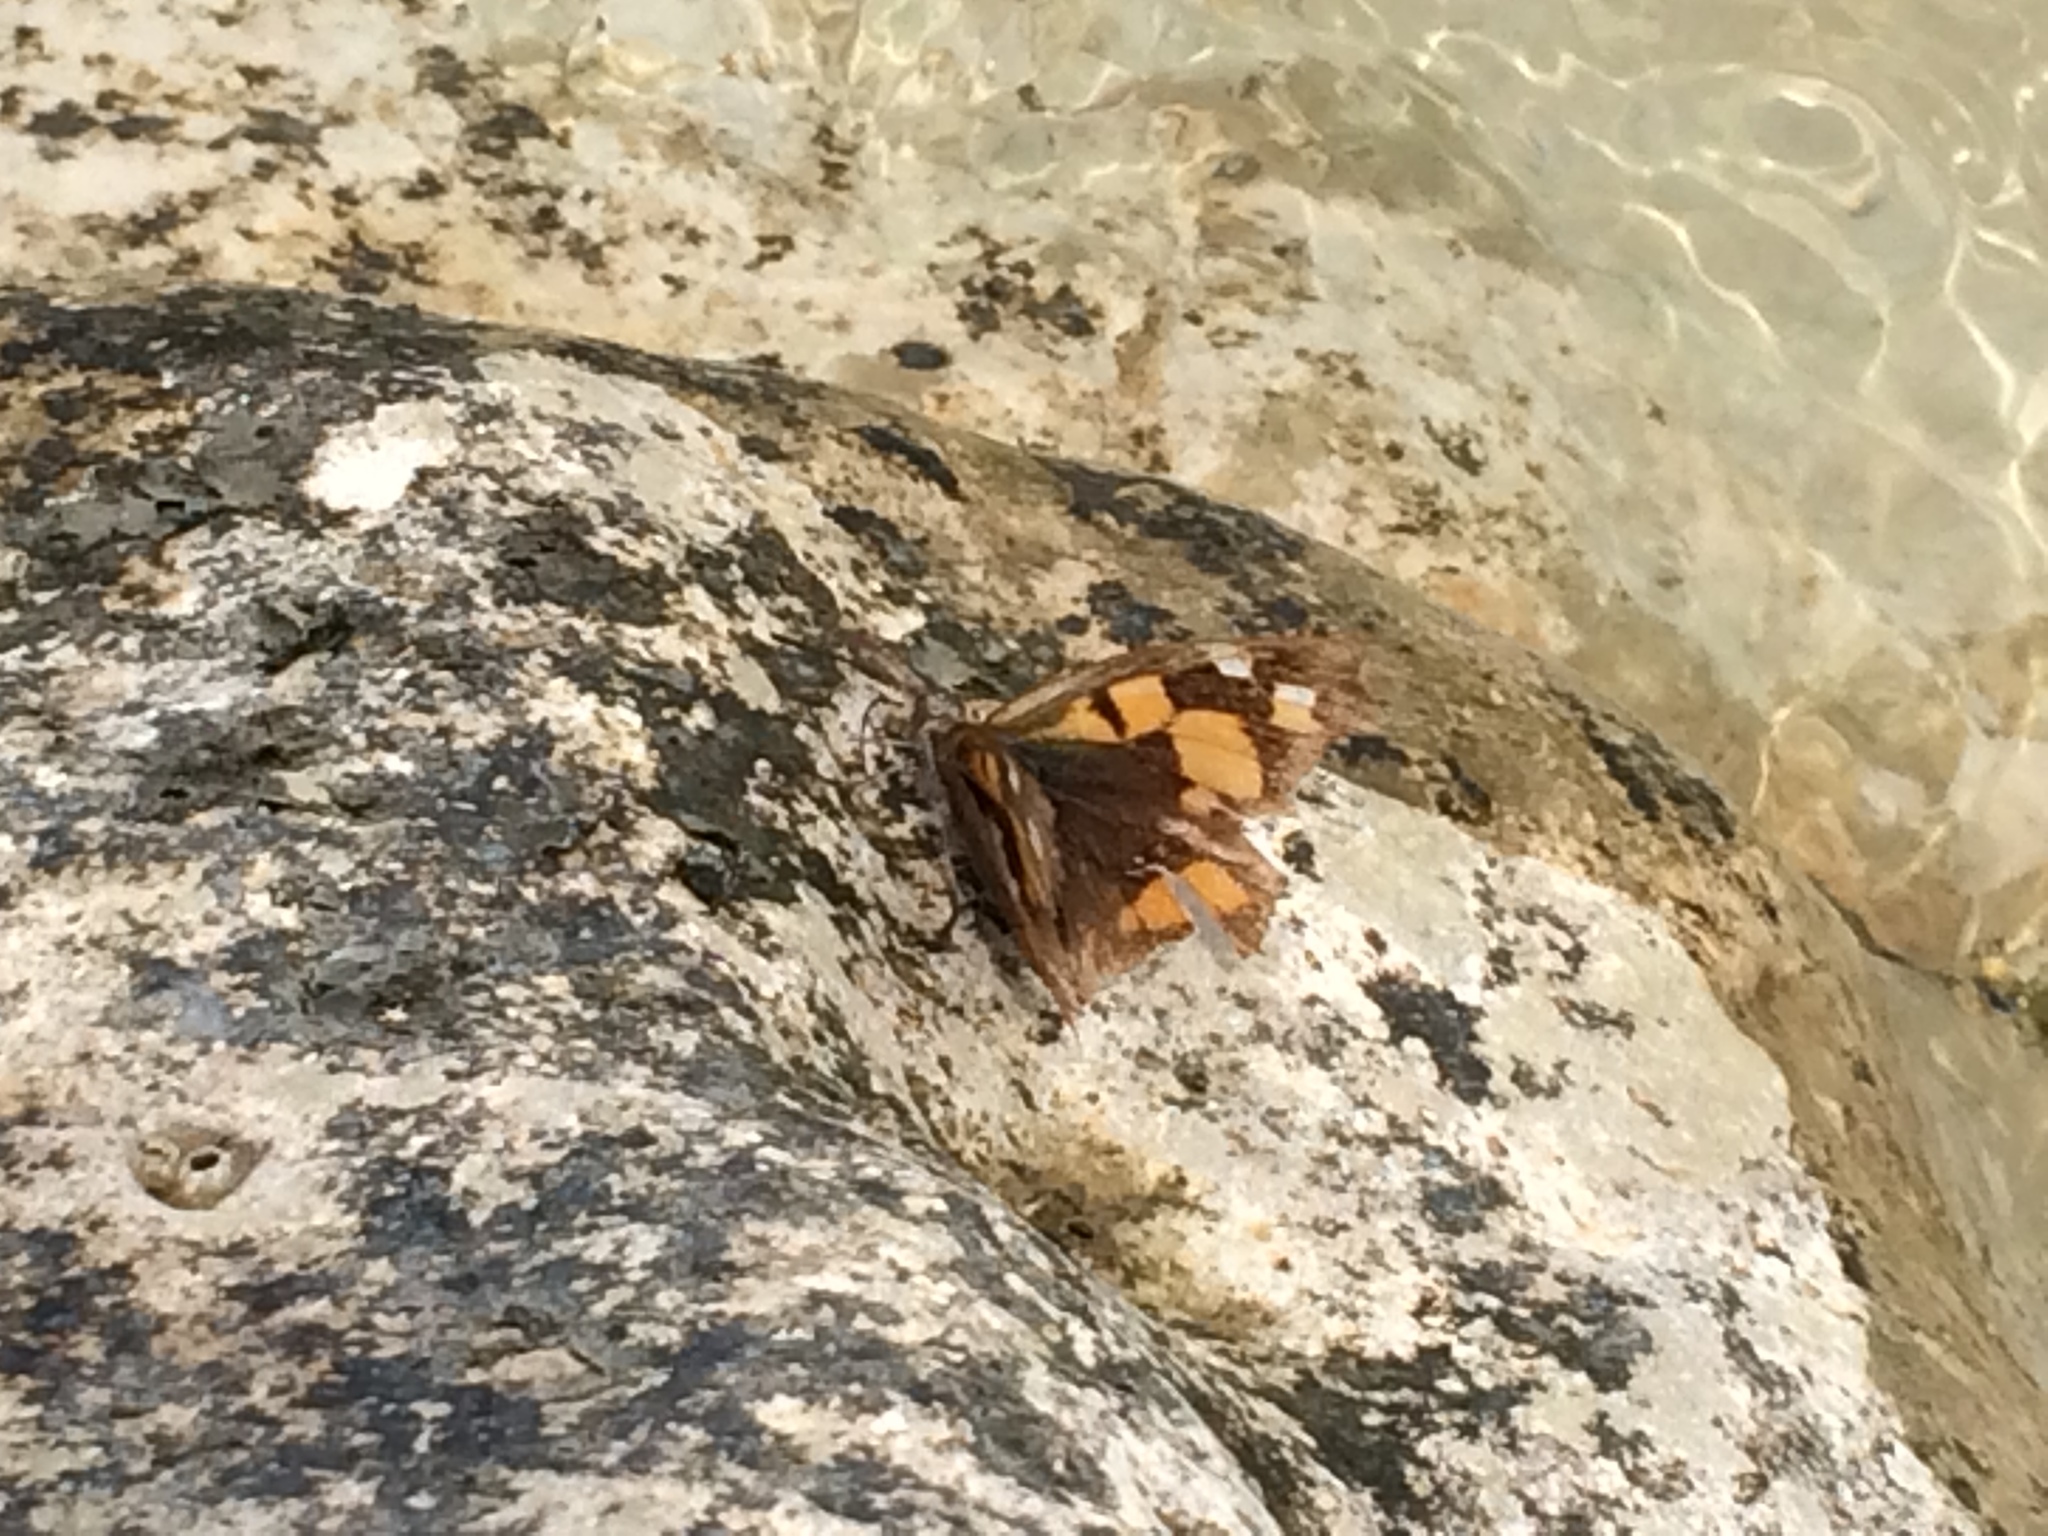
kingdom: Animalia
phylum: Arthropoda
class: Insecta
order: Lepidoptera
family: Nymphalidae
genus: Libythea
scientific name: Libythea celtis
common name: Nettle-tree butterfly
